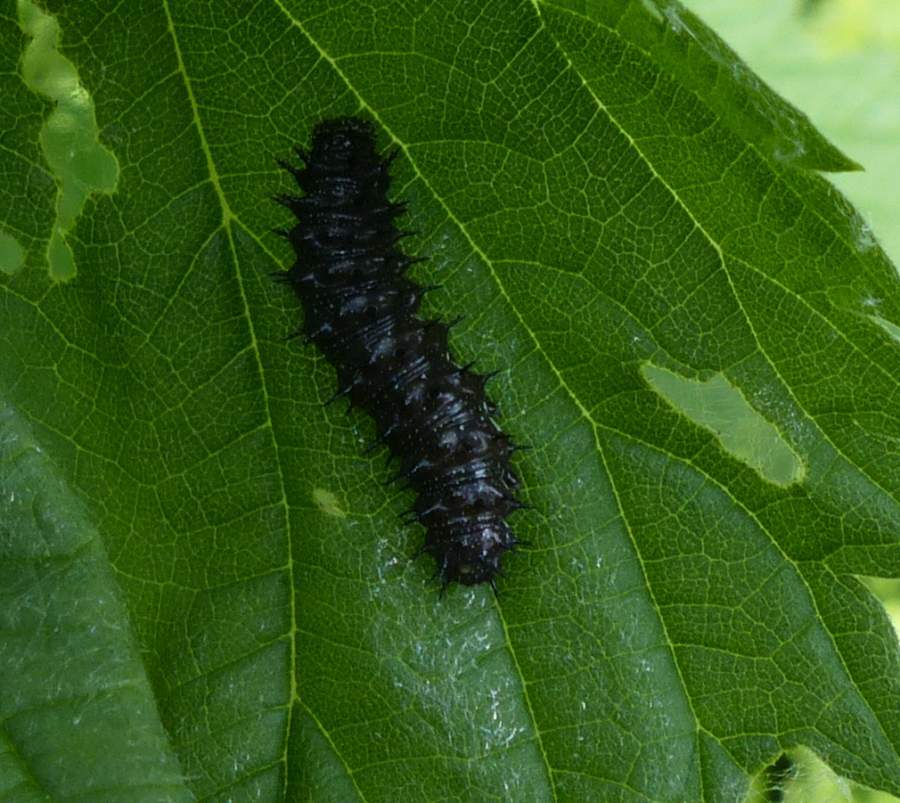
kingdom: Animalia
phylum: Arthropoda
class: Insecta
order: Lepidoptera
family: Nymphalidae
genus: Vanessa
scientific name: Vanessa atalanta
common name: Red admiral
